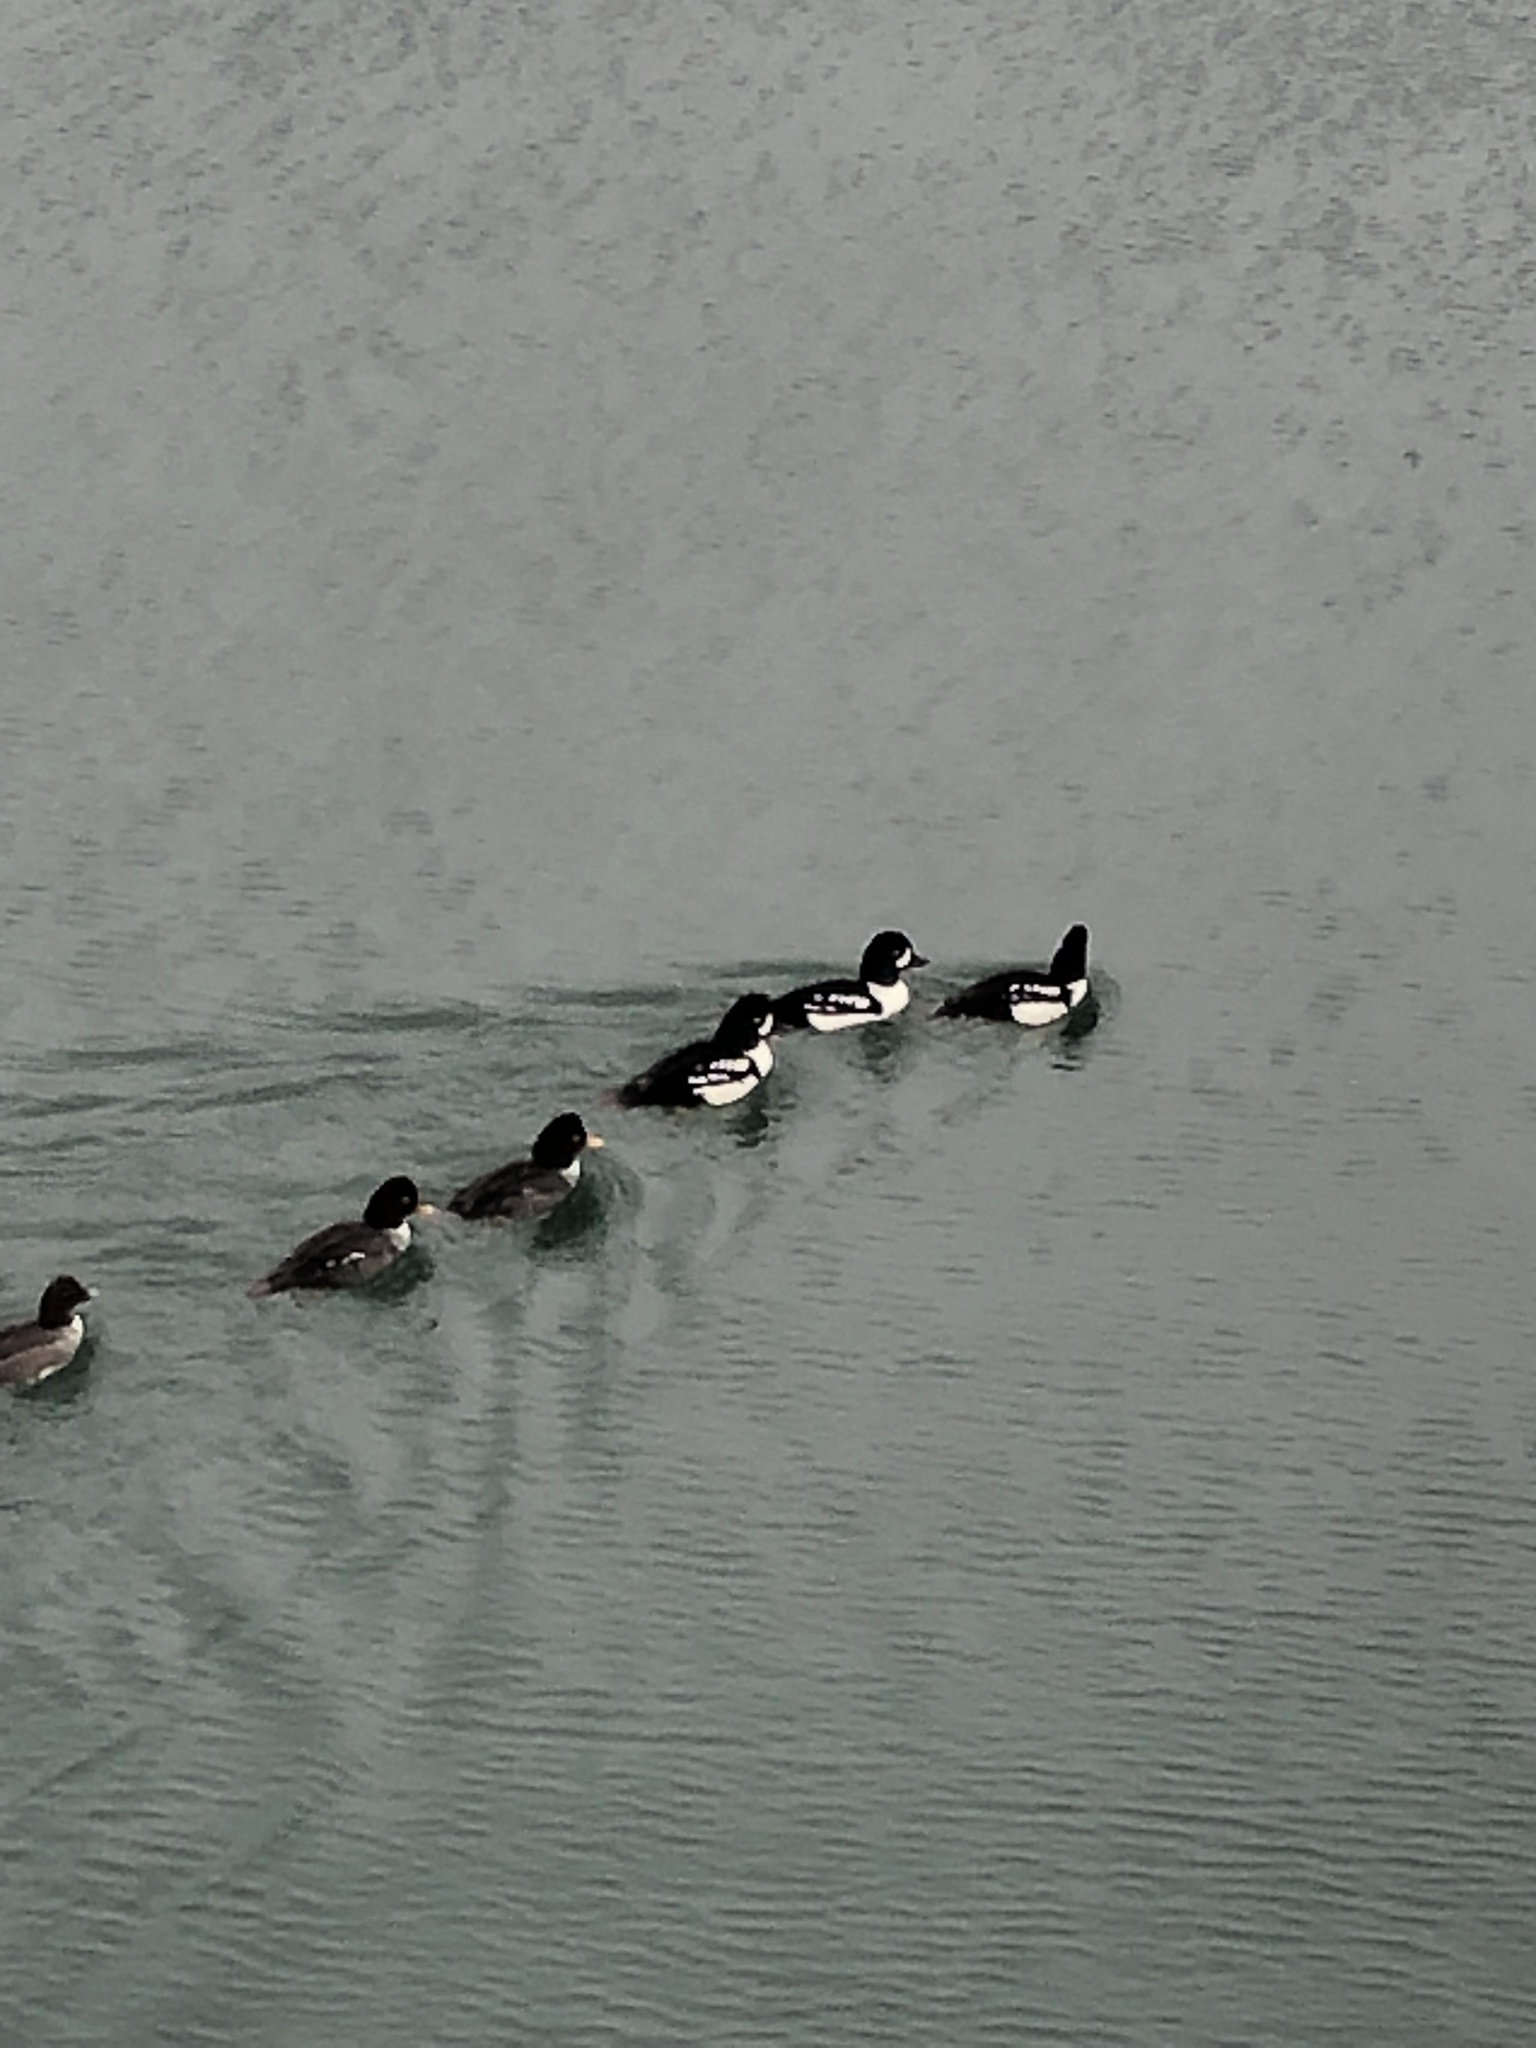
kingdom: Animalia
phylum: Chordata
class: Aves
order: Anseriformes
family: Anatidae
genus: Bucephala
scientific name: Bucephala islandica
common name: Barrow's goldeneye
